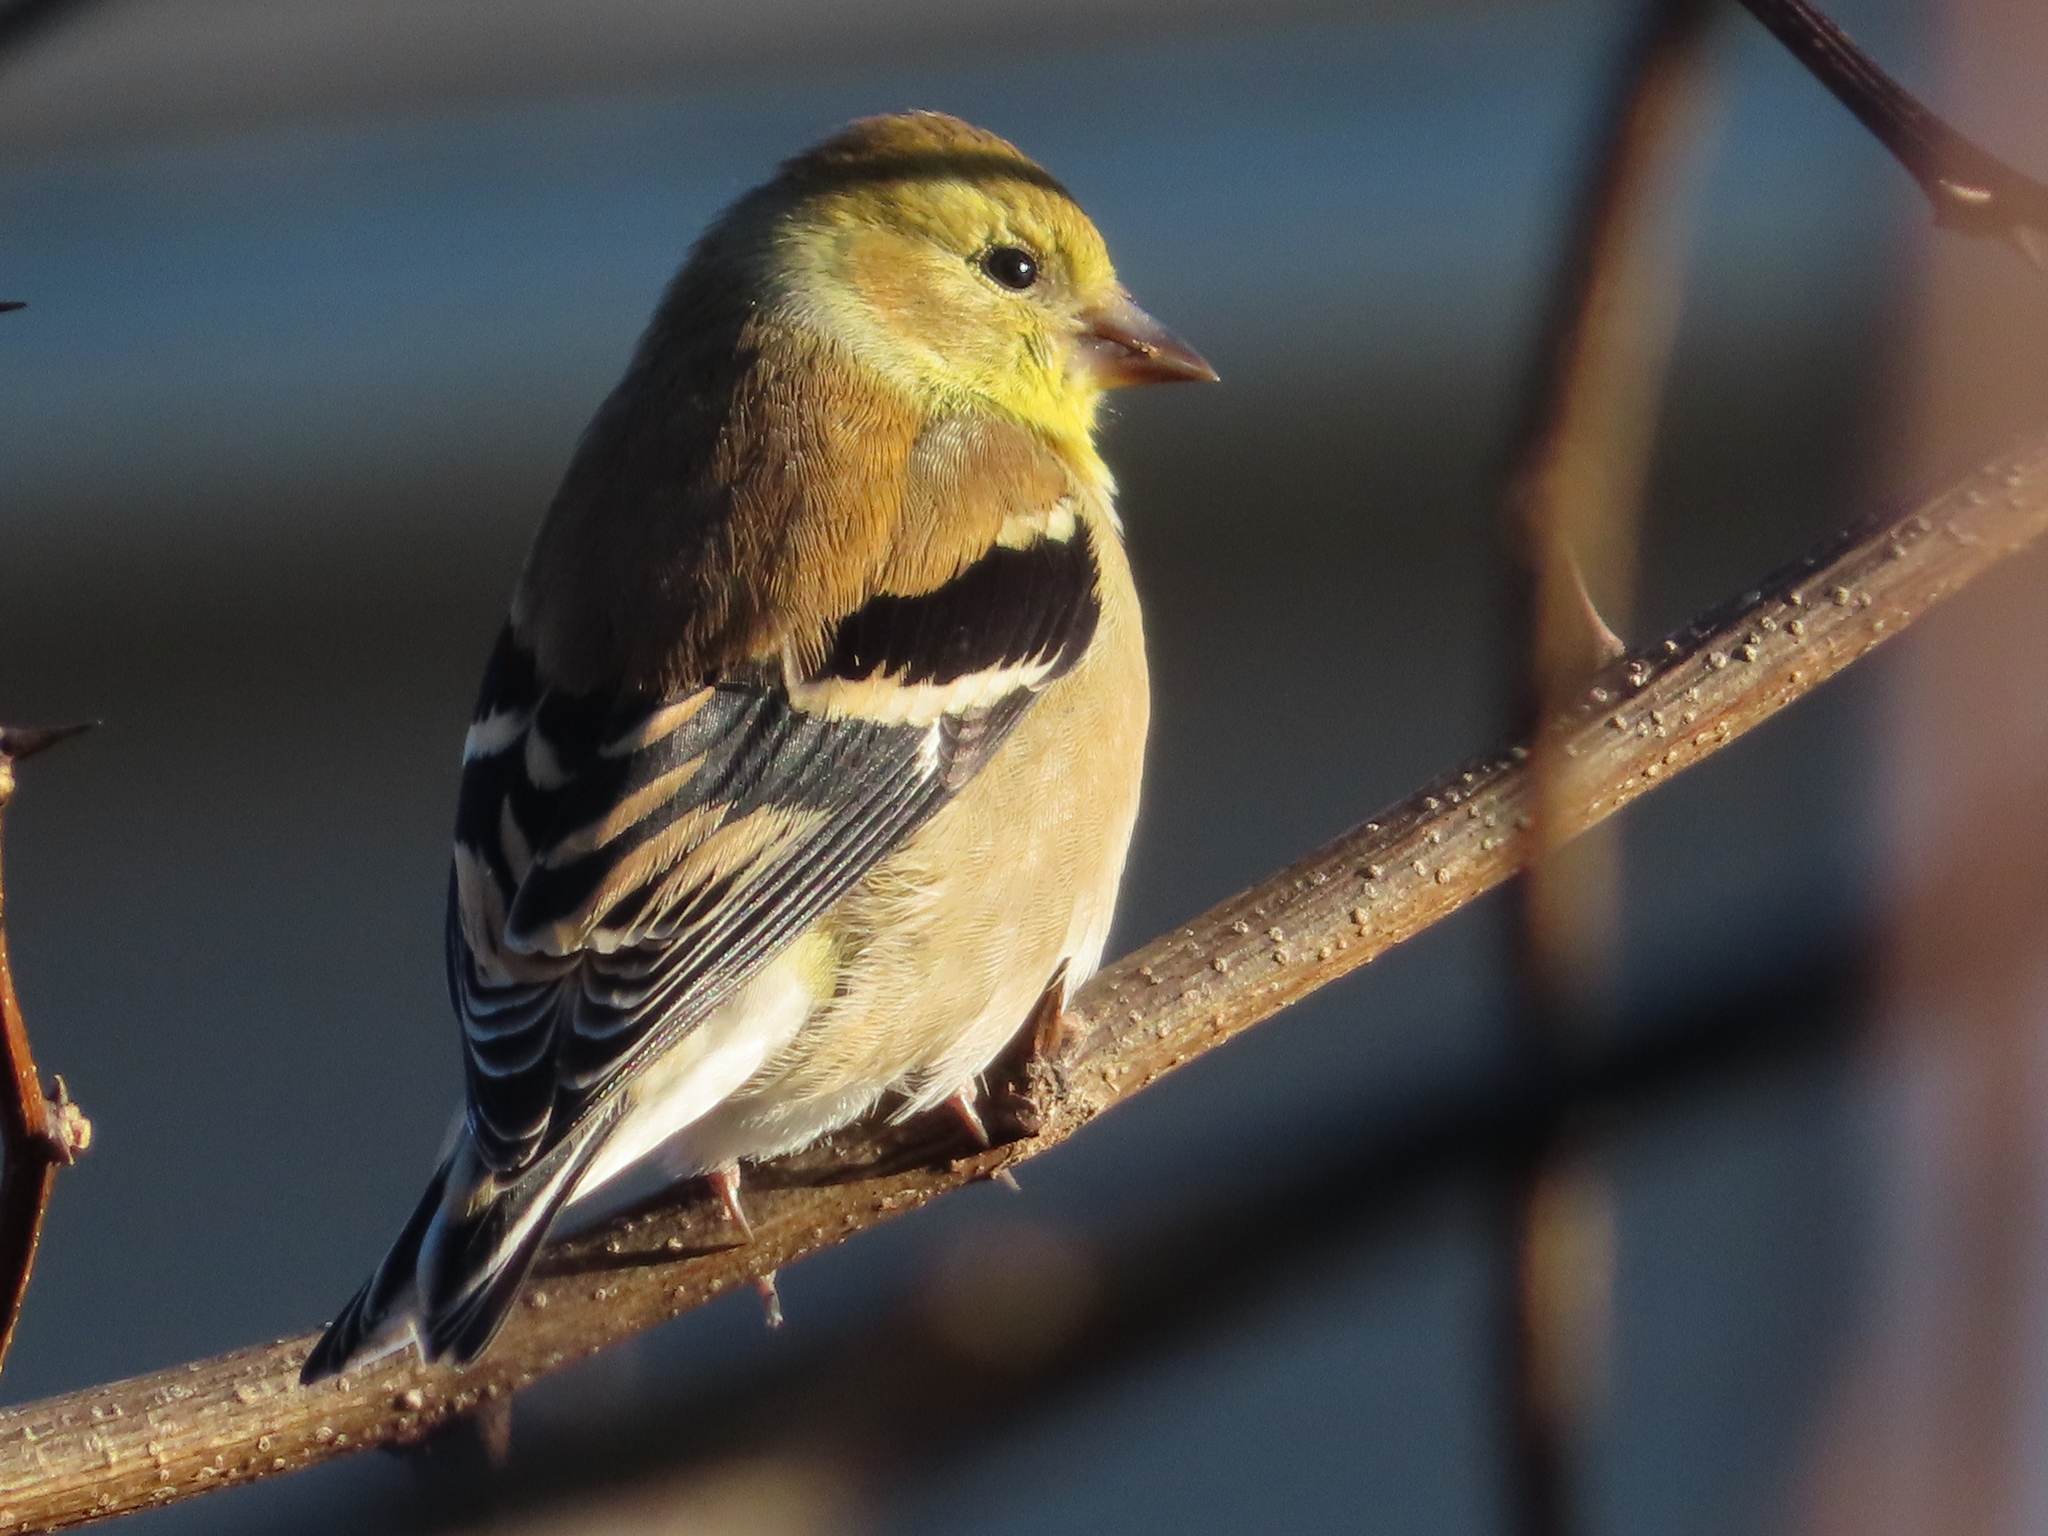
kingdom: Animalia
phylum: Chordata
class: Aves
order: Passeriformes
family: Fringillidae
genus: Spinus
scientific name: Spinus tristis
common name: American goldfinch
